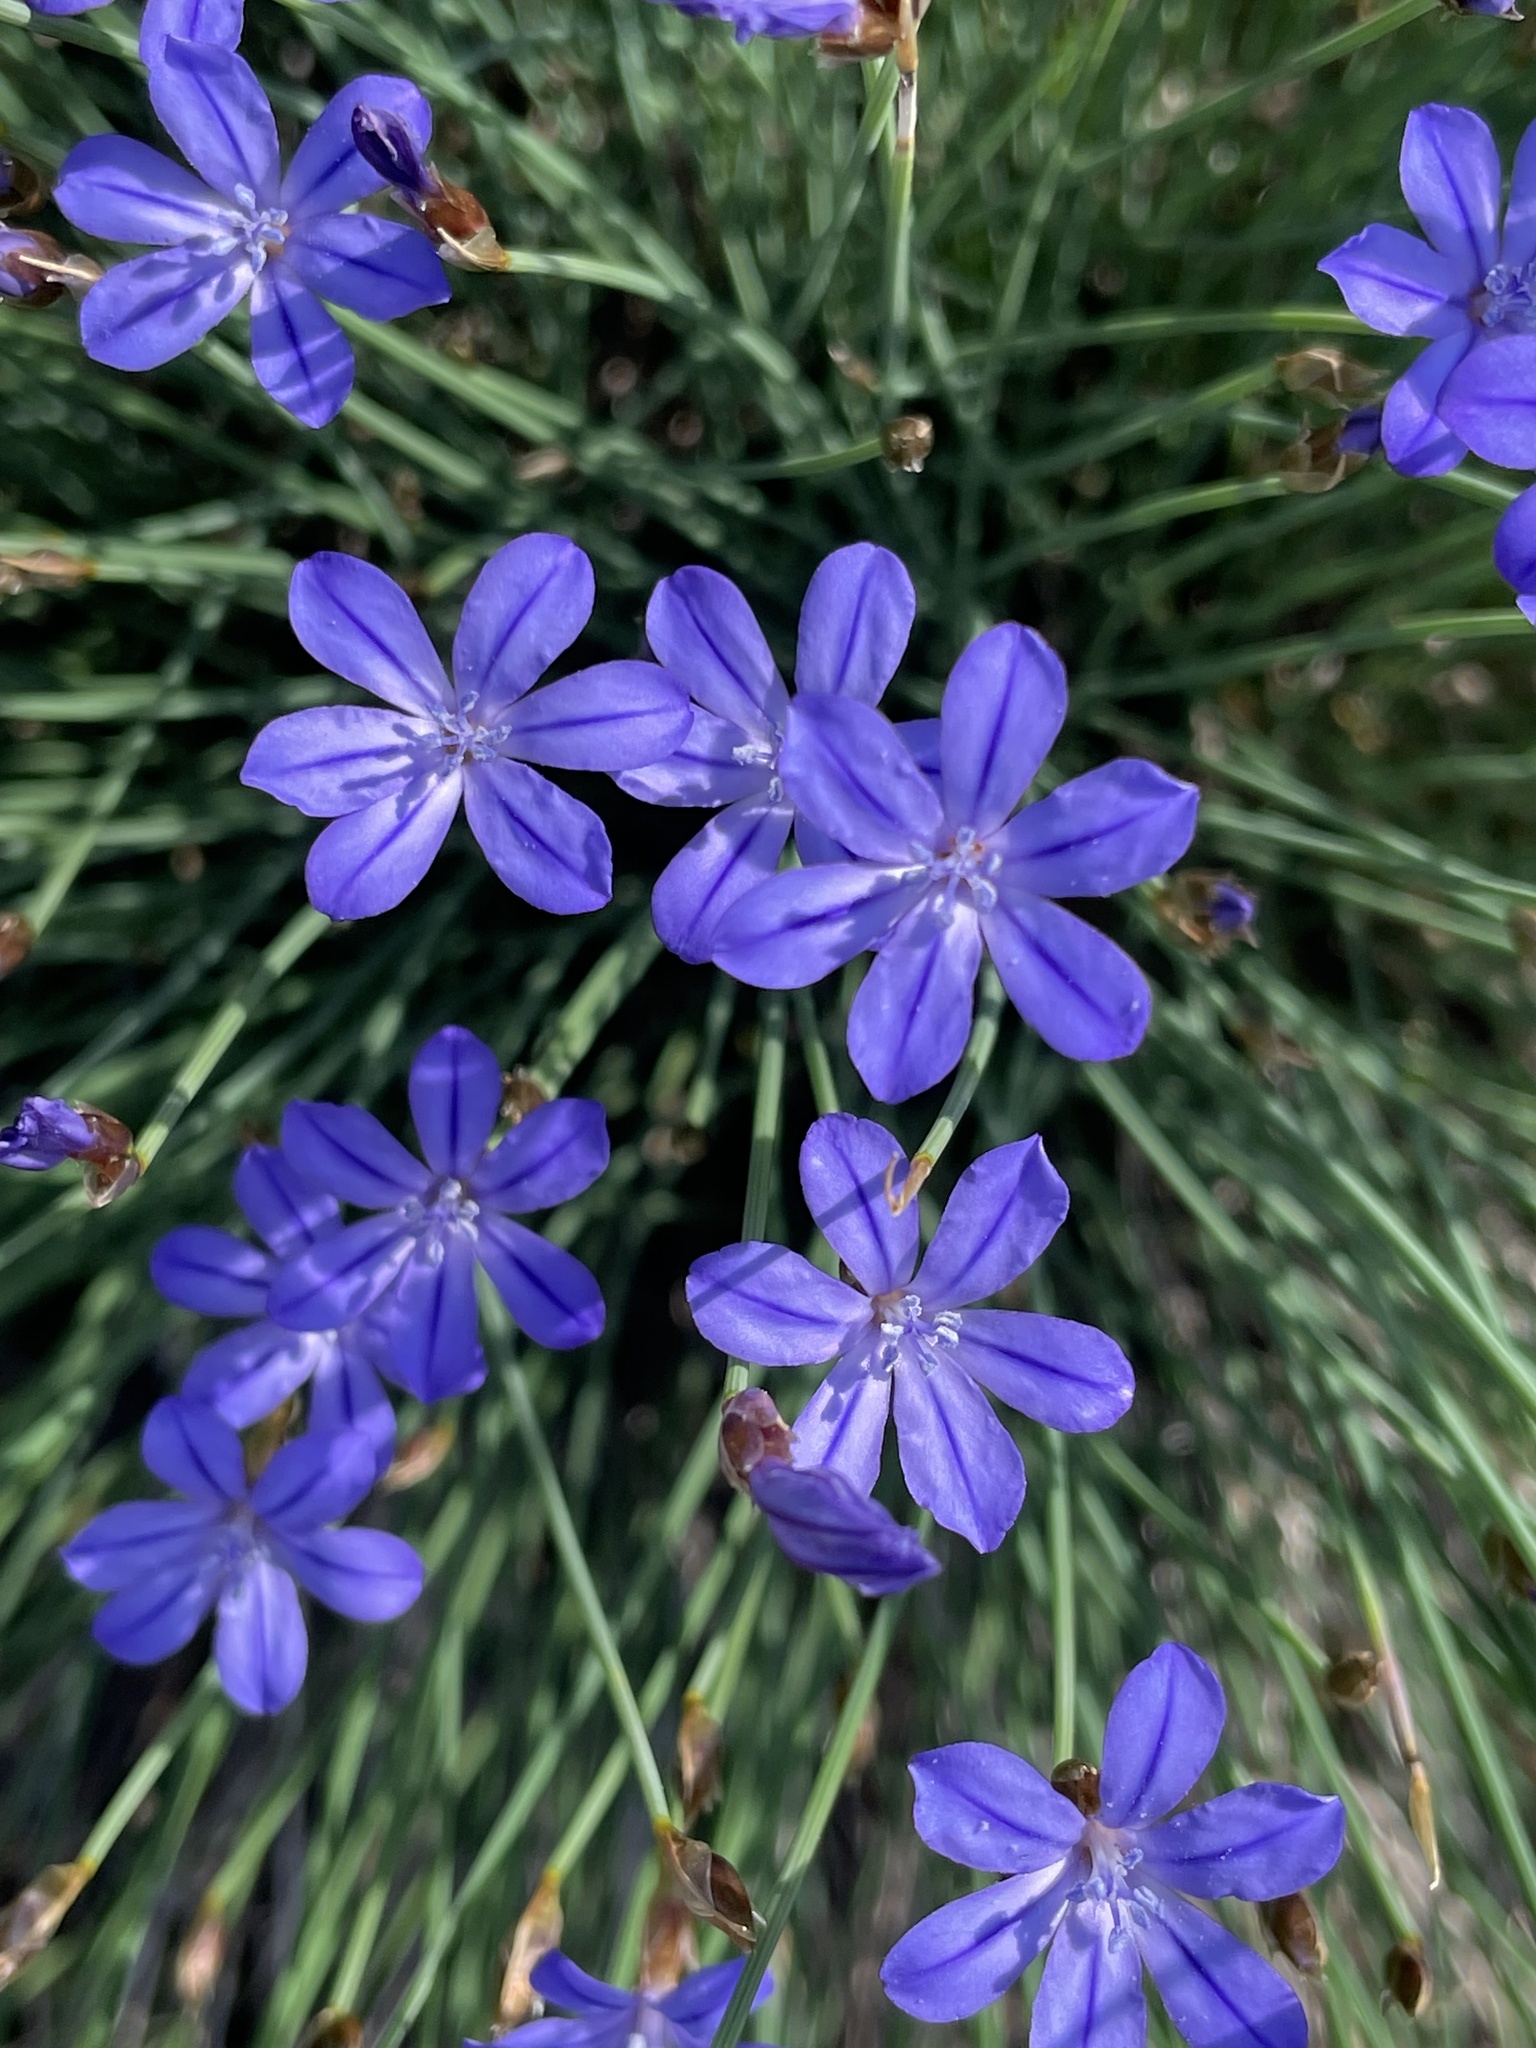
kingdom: Plantae
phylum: Tracheophyta
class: Liliopsida
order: Asparagales
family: Asparagaceae
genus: Aphyllanthes
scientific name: Aphyllanthes monspeliensis
